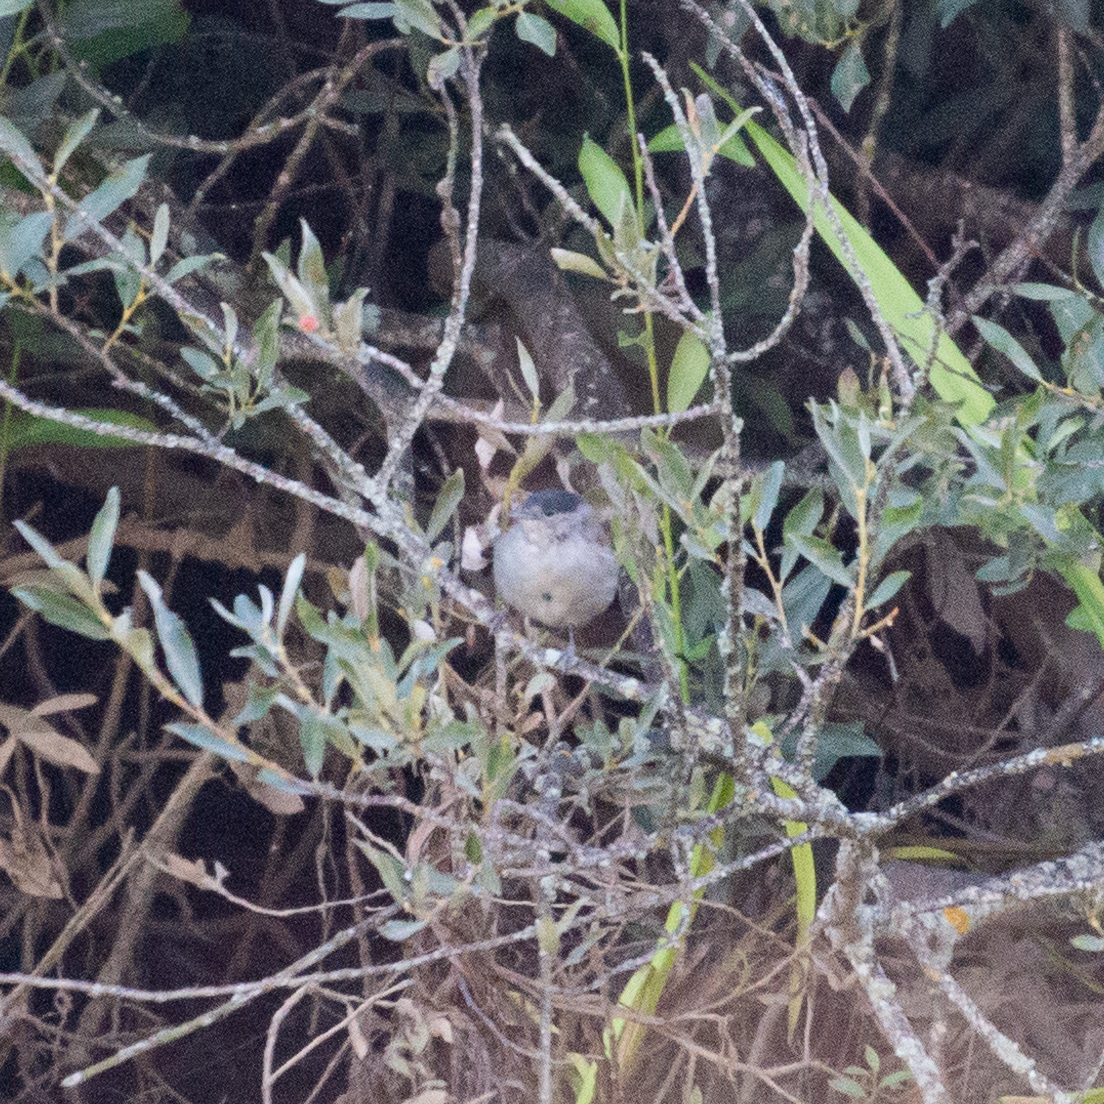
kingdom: Animalia
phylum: Chordata
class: Aves
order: Passeriformes
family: Sylviidae
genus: Sylvia
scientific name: Sylvia atricapilla
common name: Eurasian blackcap
